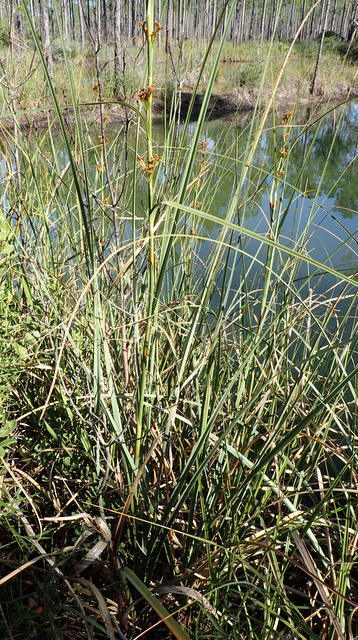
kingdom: Plantae
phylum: Tracheophyta
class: Liliopsida
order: Poales
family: Cyperaceae
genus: Cladium
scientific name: Cladium mariscus
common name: Great fen-sedge
